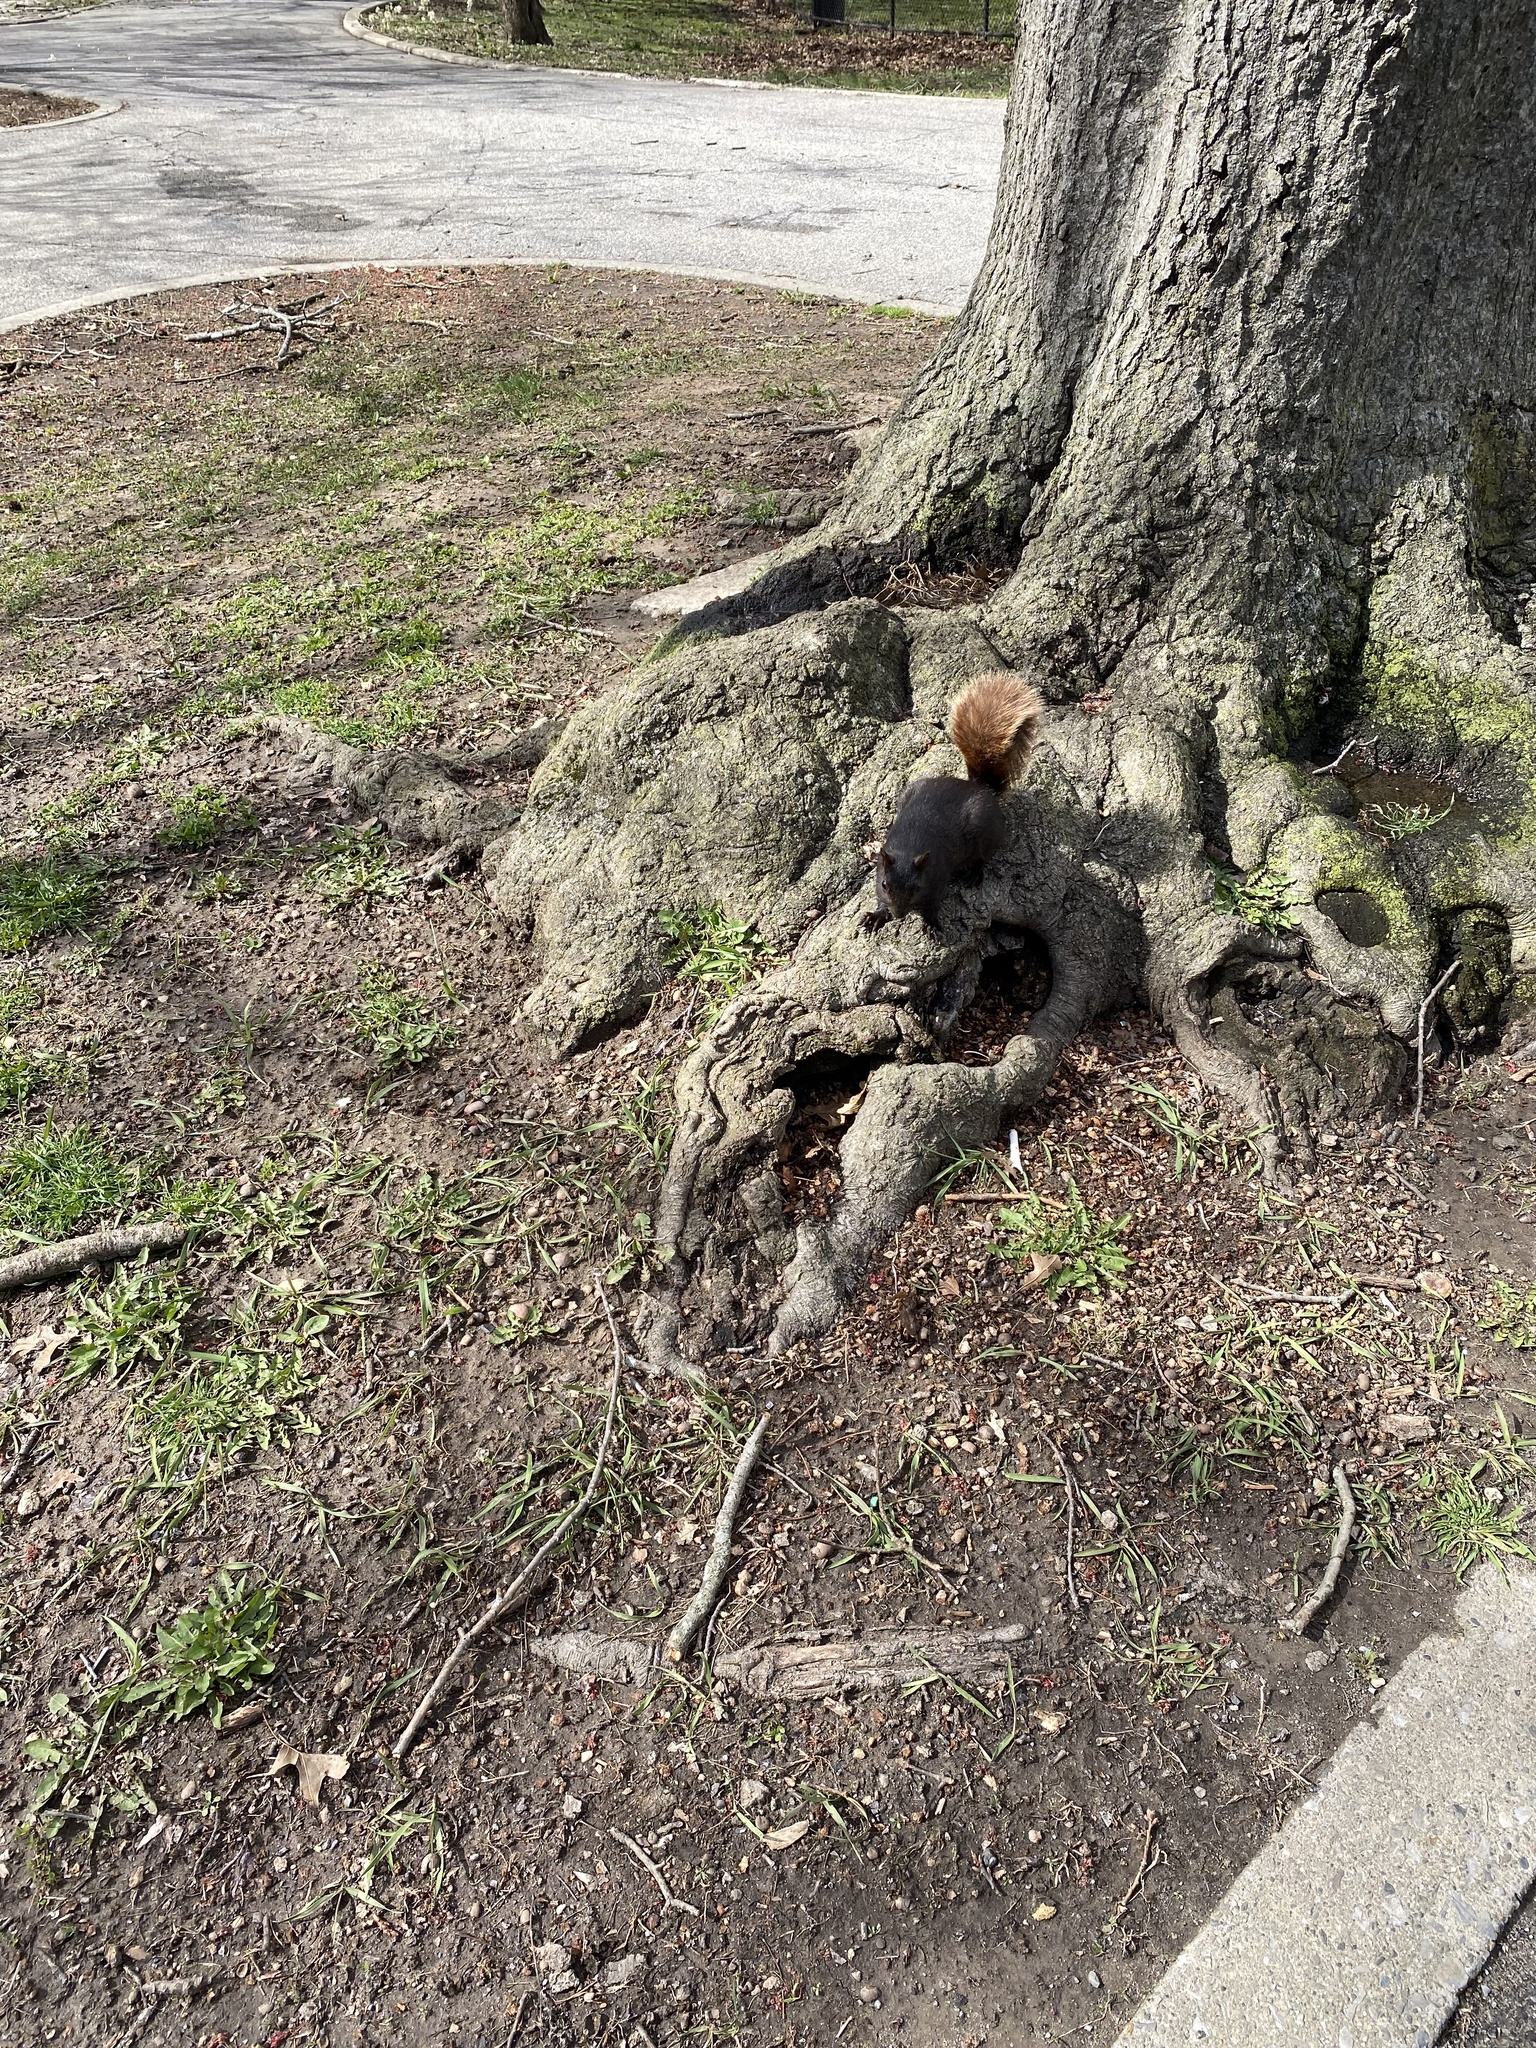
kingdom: Animalia
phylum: Chordata
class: Mammalia
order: Rodentia
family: Sciuridae
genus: Sciurus
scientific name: Sciurus carolinensis
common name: Eastern gray squirrel
